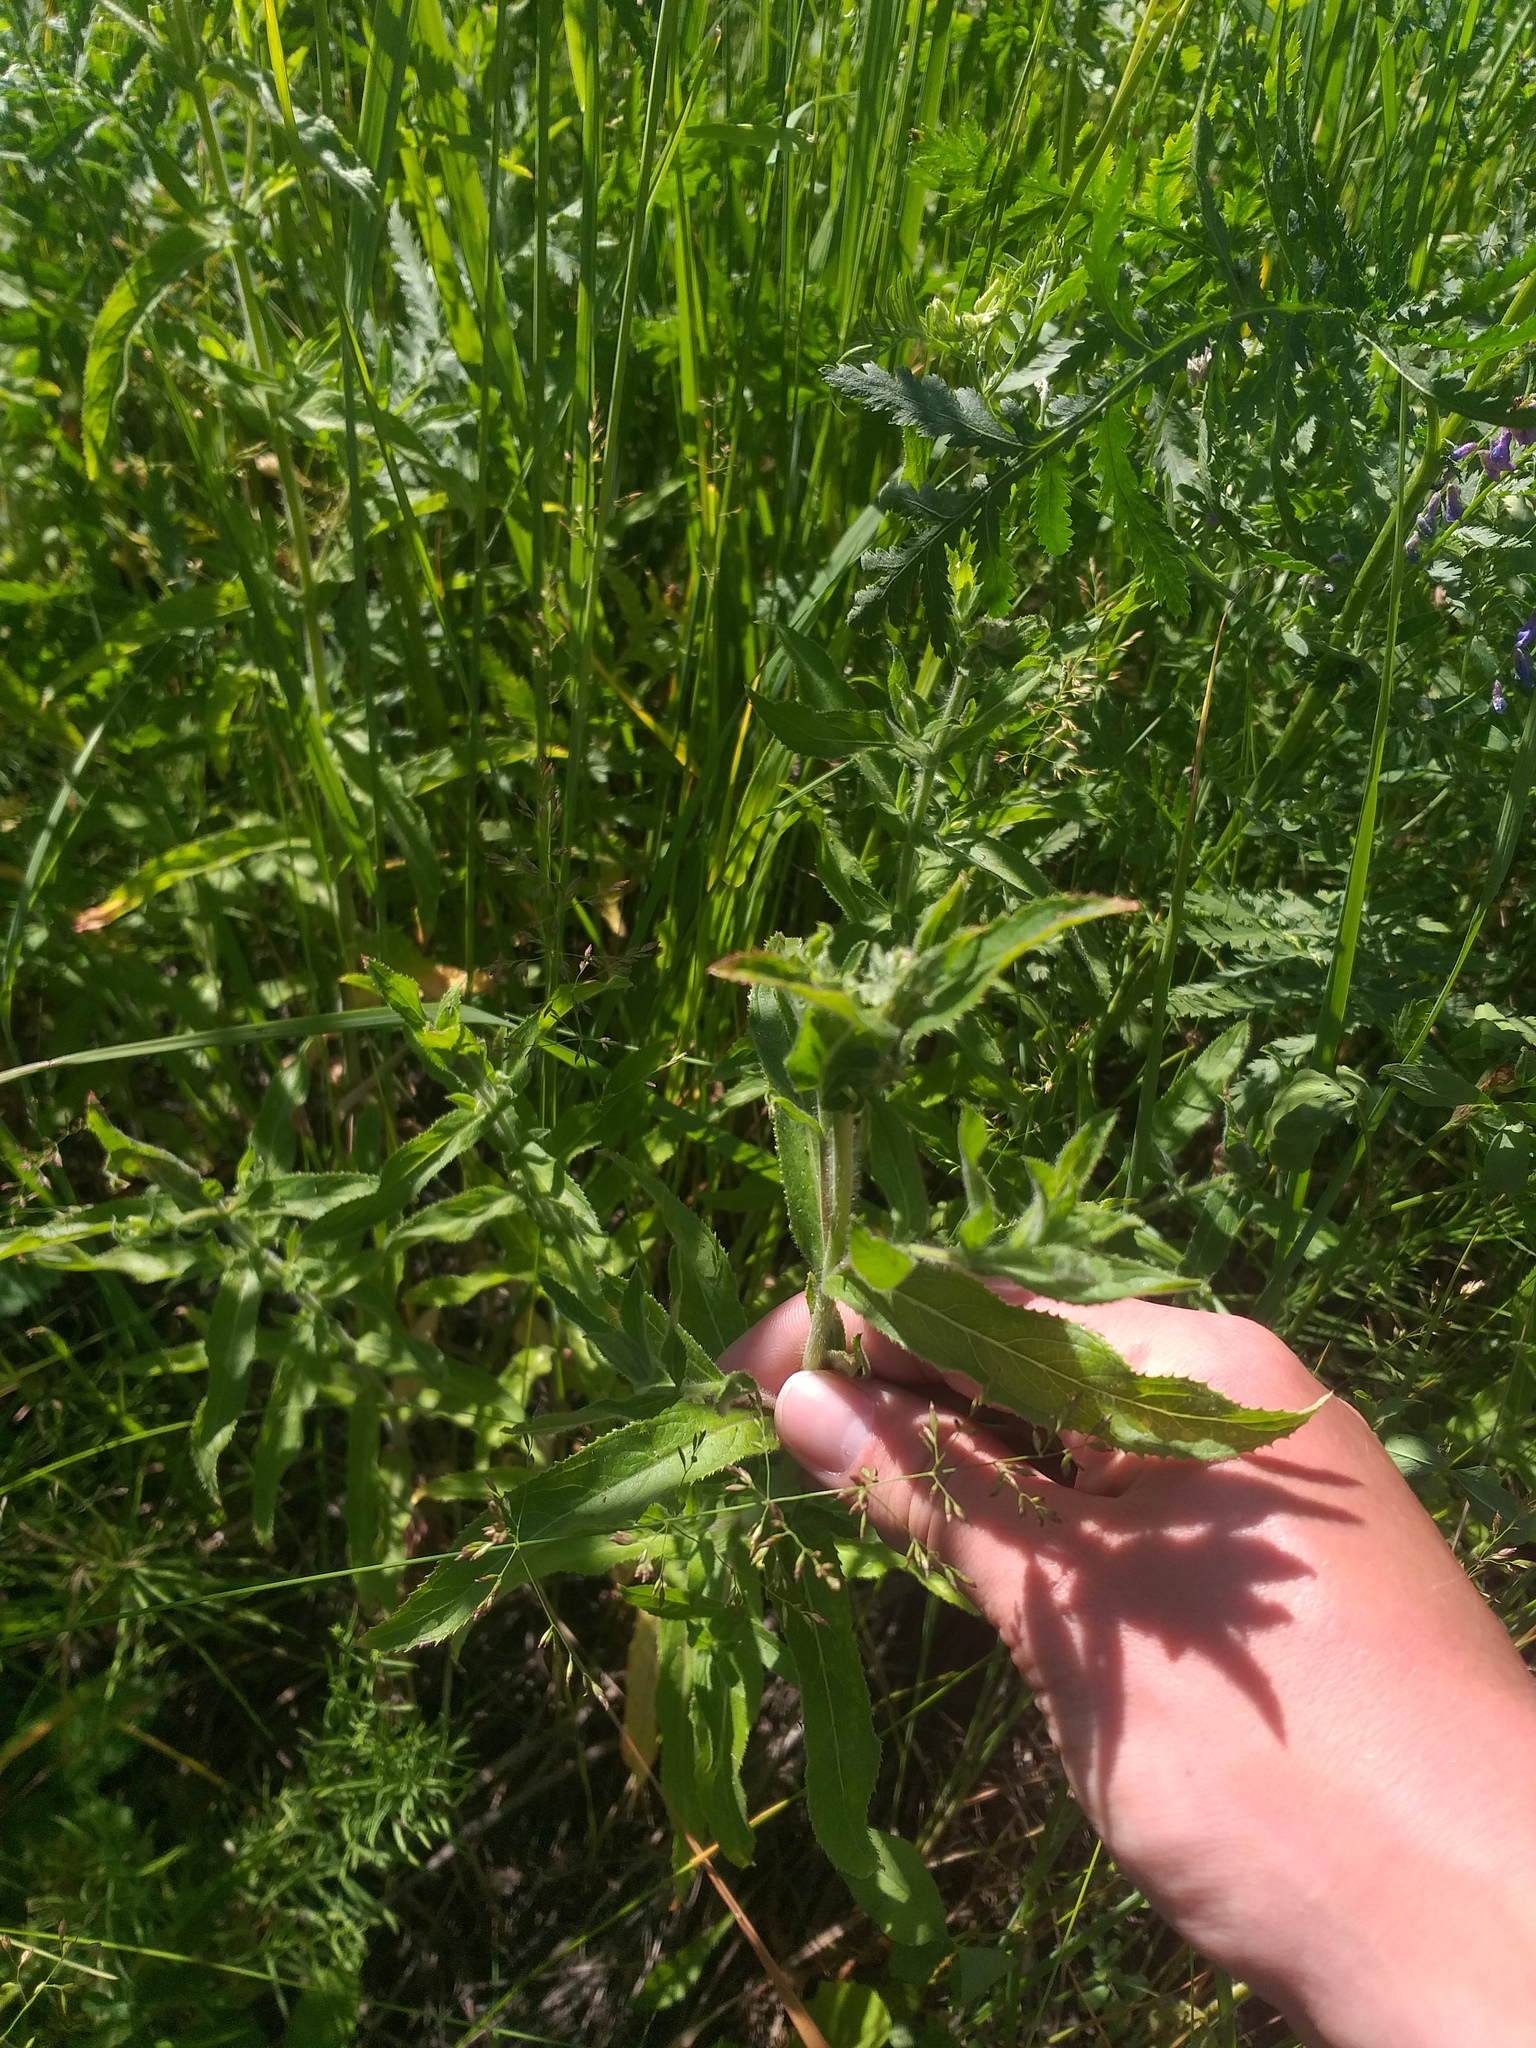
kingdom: Plantae
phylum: Tracheophyta
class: Magnoliopsida
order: Myrtales
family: Onagraceae
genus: Epilobium
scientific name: Epilobium hirsutum
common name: Great willowherb
